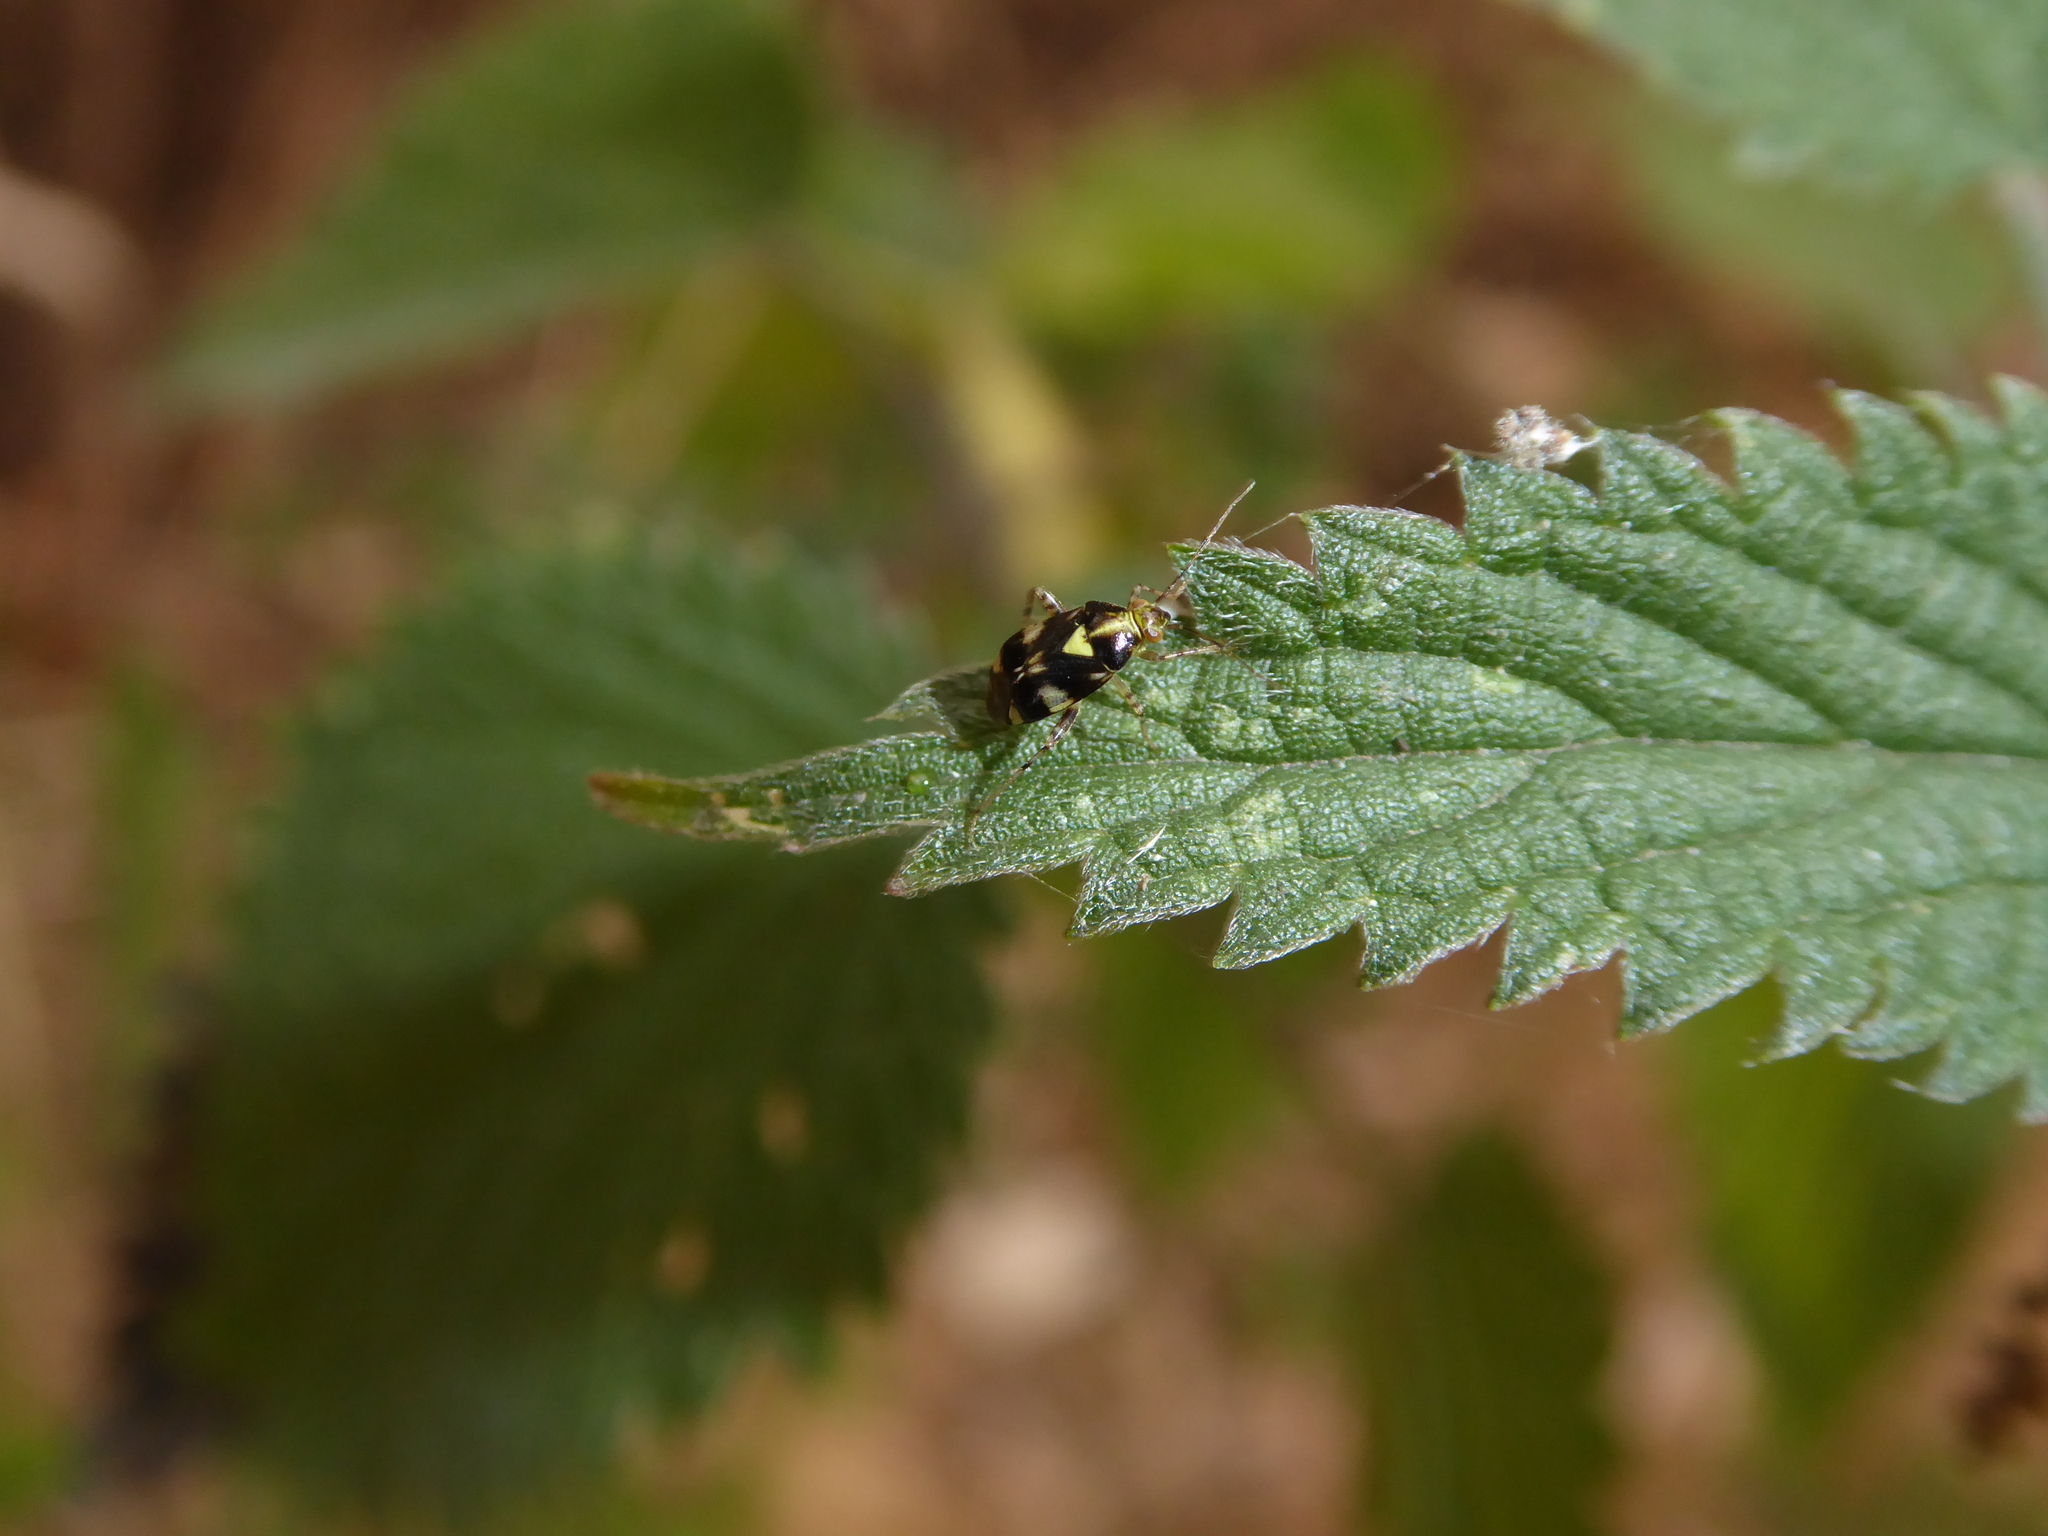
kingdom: Animalia
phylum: Arthropoda
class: Insecta
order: Hemiptera
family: Miridae
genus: Liocoris
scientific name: Liocoris tripustulatus
